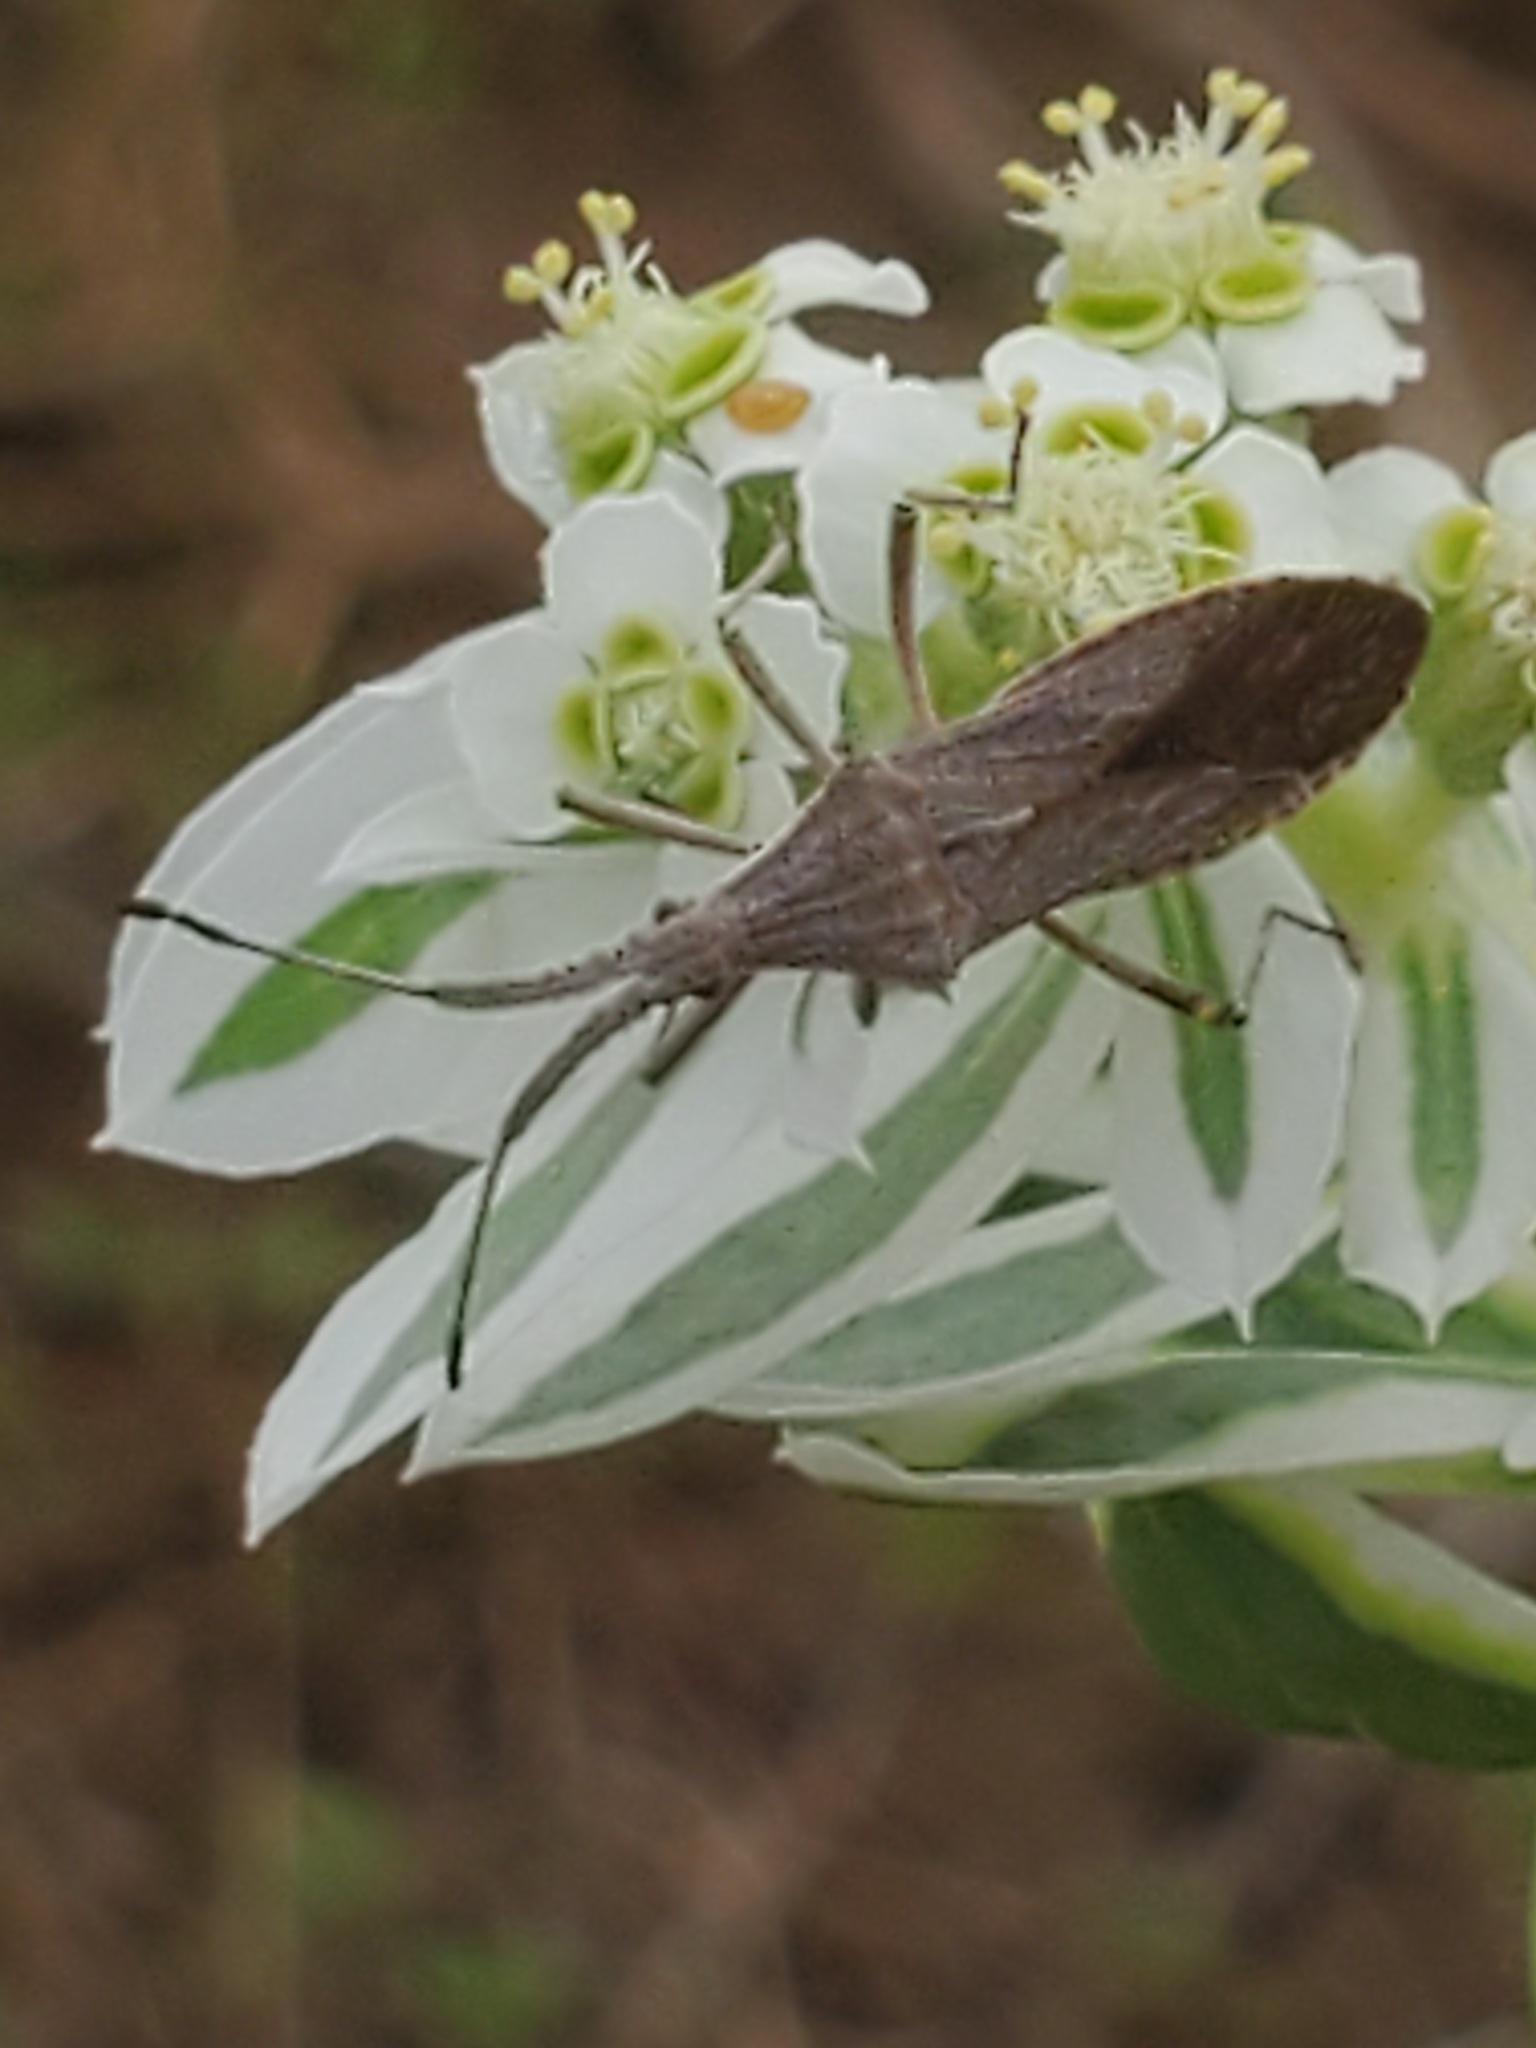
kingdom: Animalia
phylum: Arthropoda
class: Insecta
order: Hemiptera
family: Coreidae
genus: Chariesterus
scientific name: Chariesterus antennator
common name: Flat horned coreid
